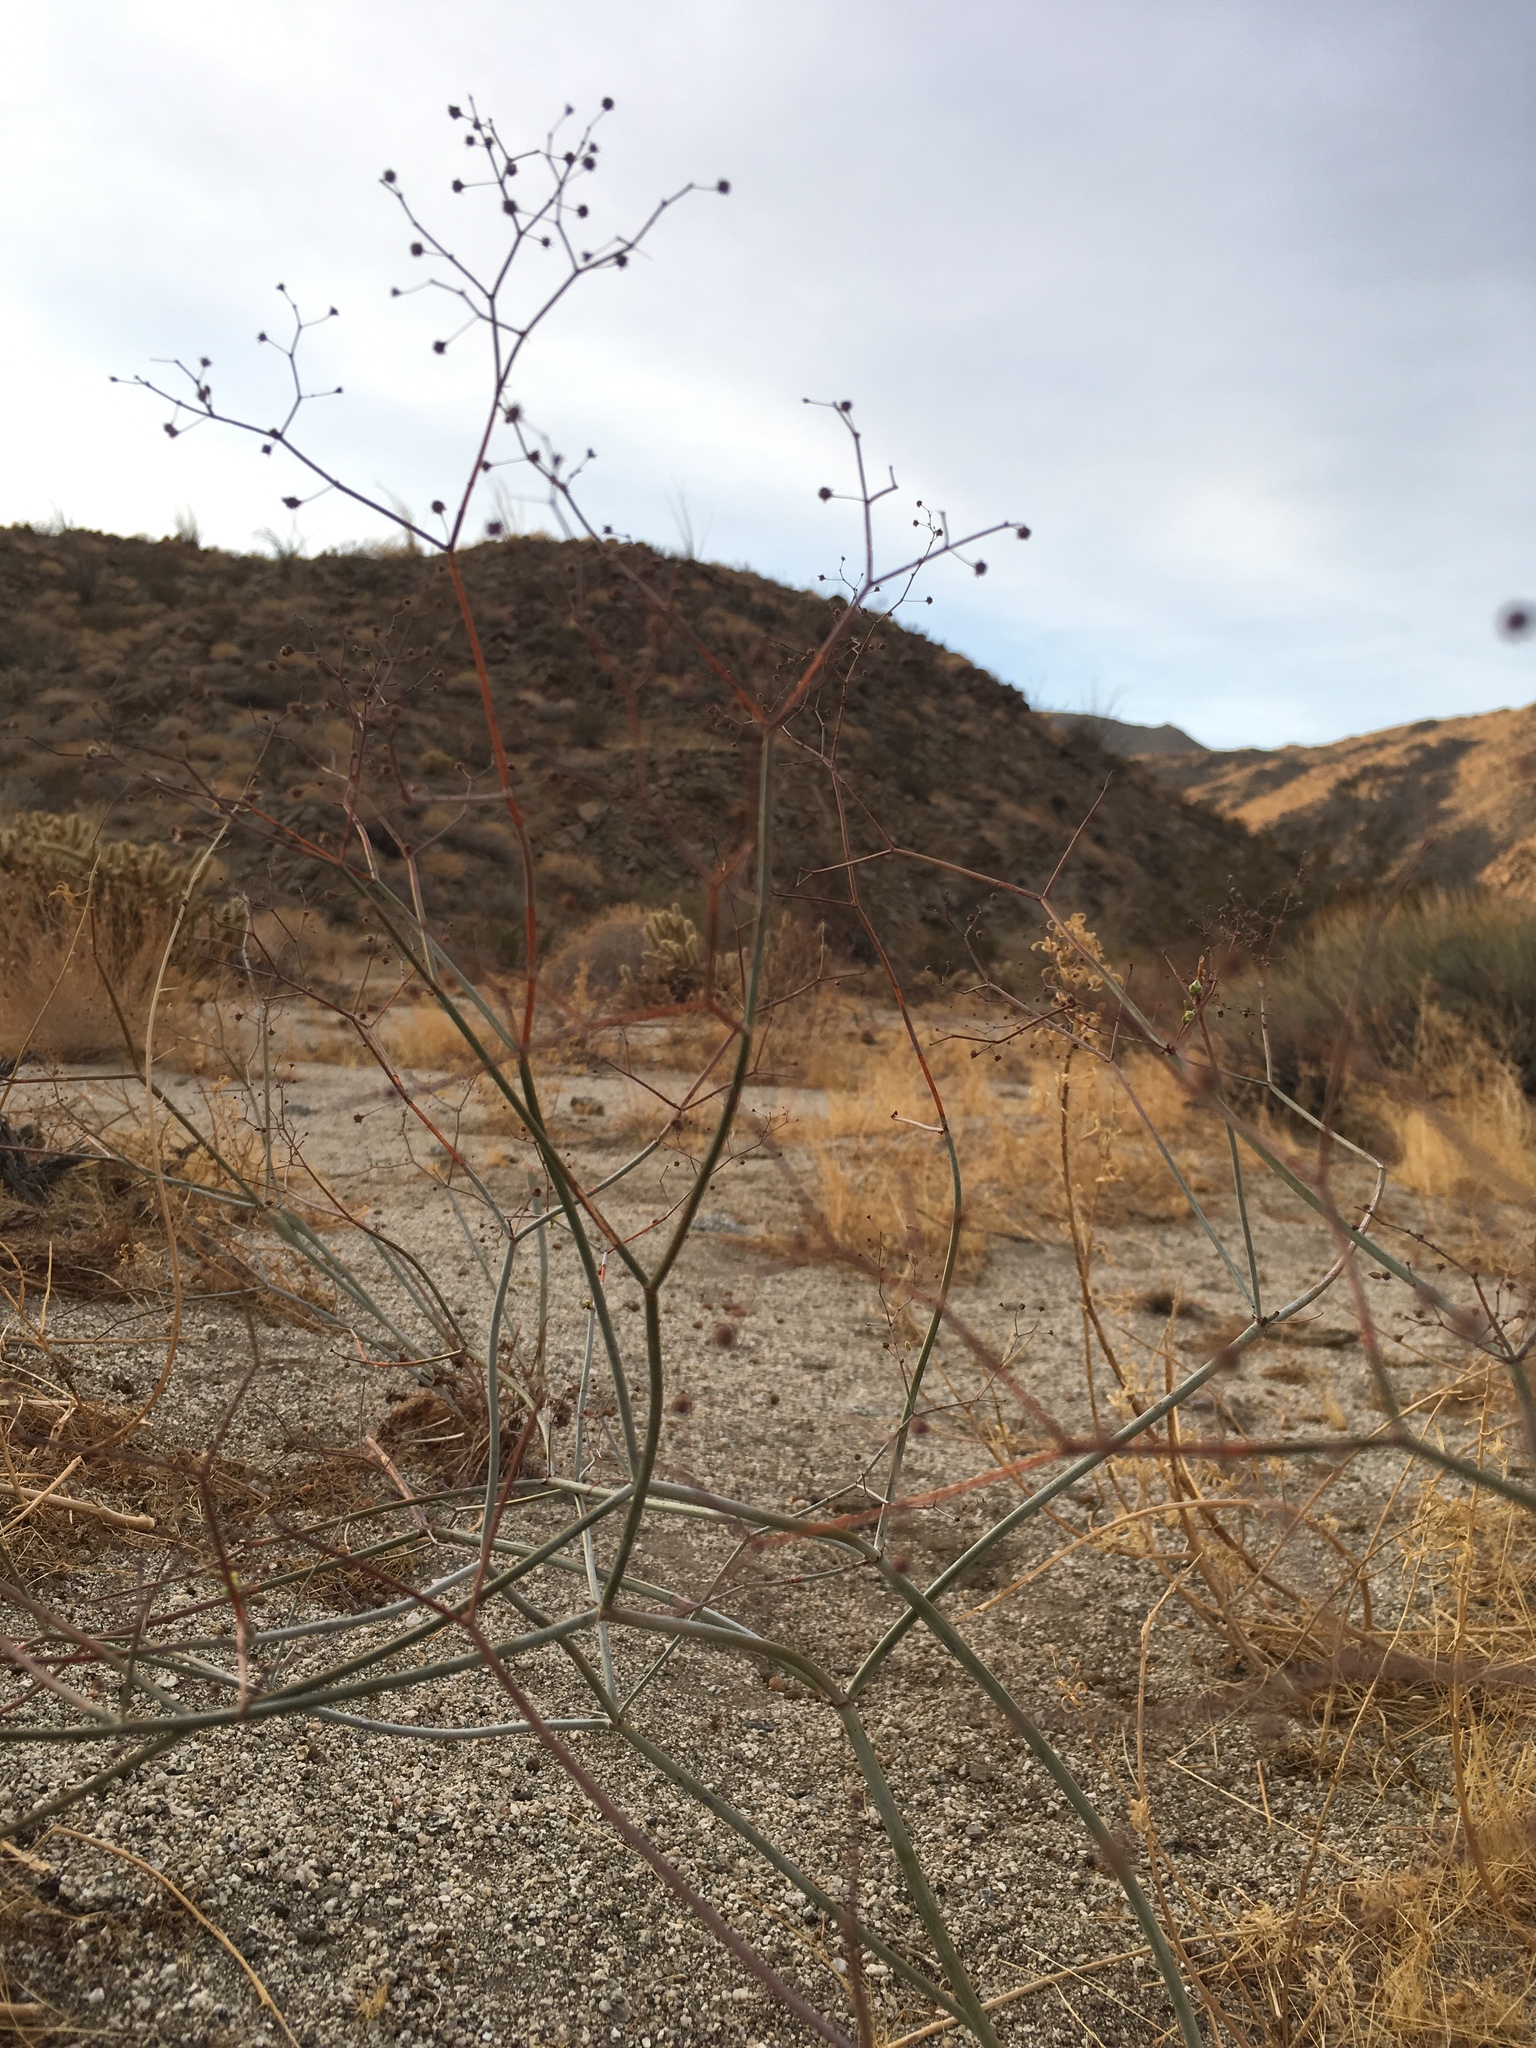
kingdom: Plantae
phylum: Tracheophyta
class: Magnoliopsida
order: Caryophyllales
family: Polygonaceae
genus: Eriogonum
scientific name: Eriogonum inflatum
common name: Desert trumpet
